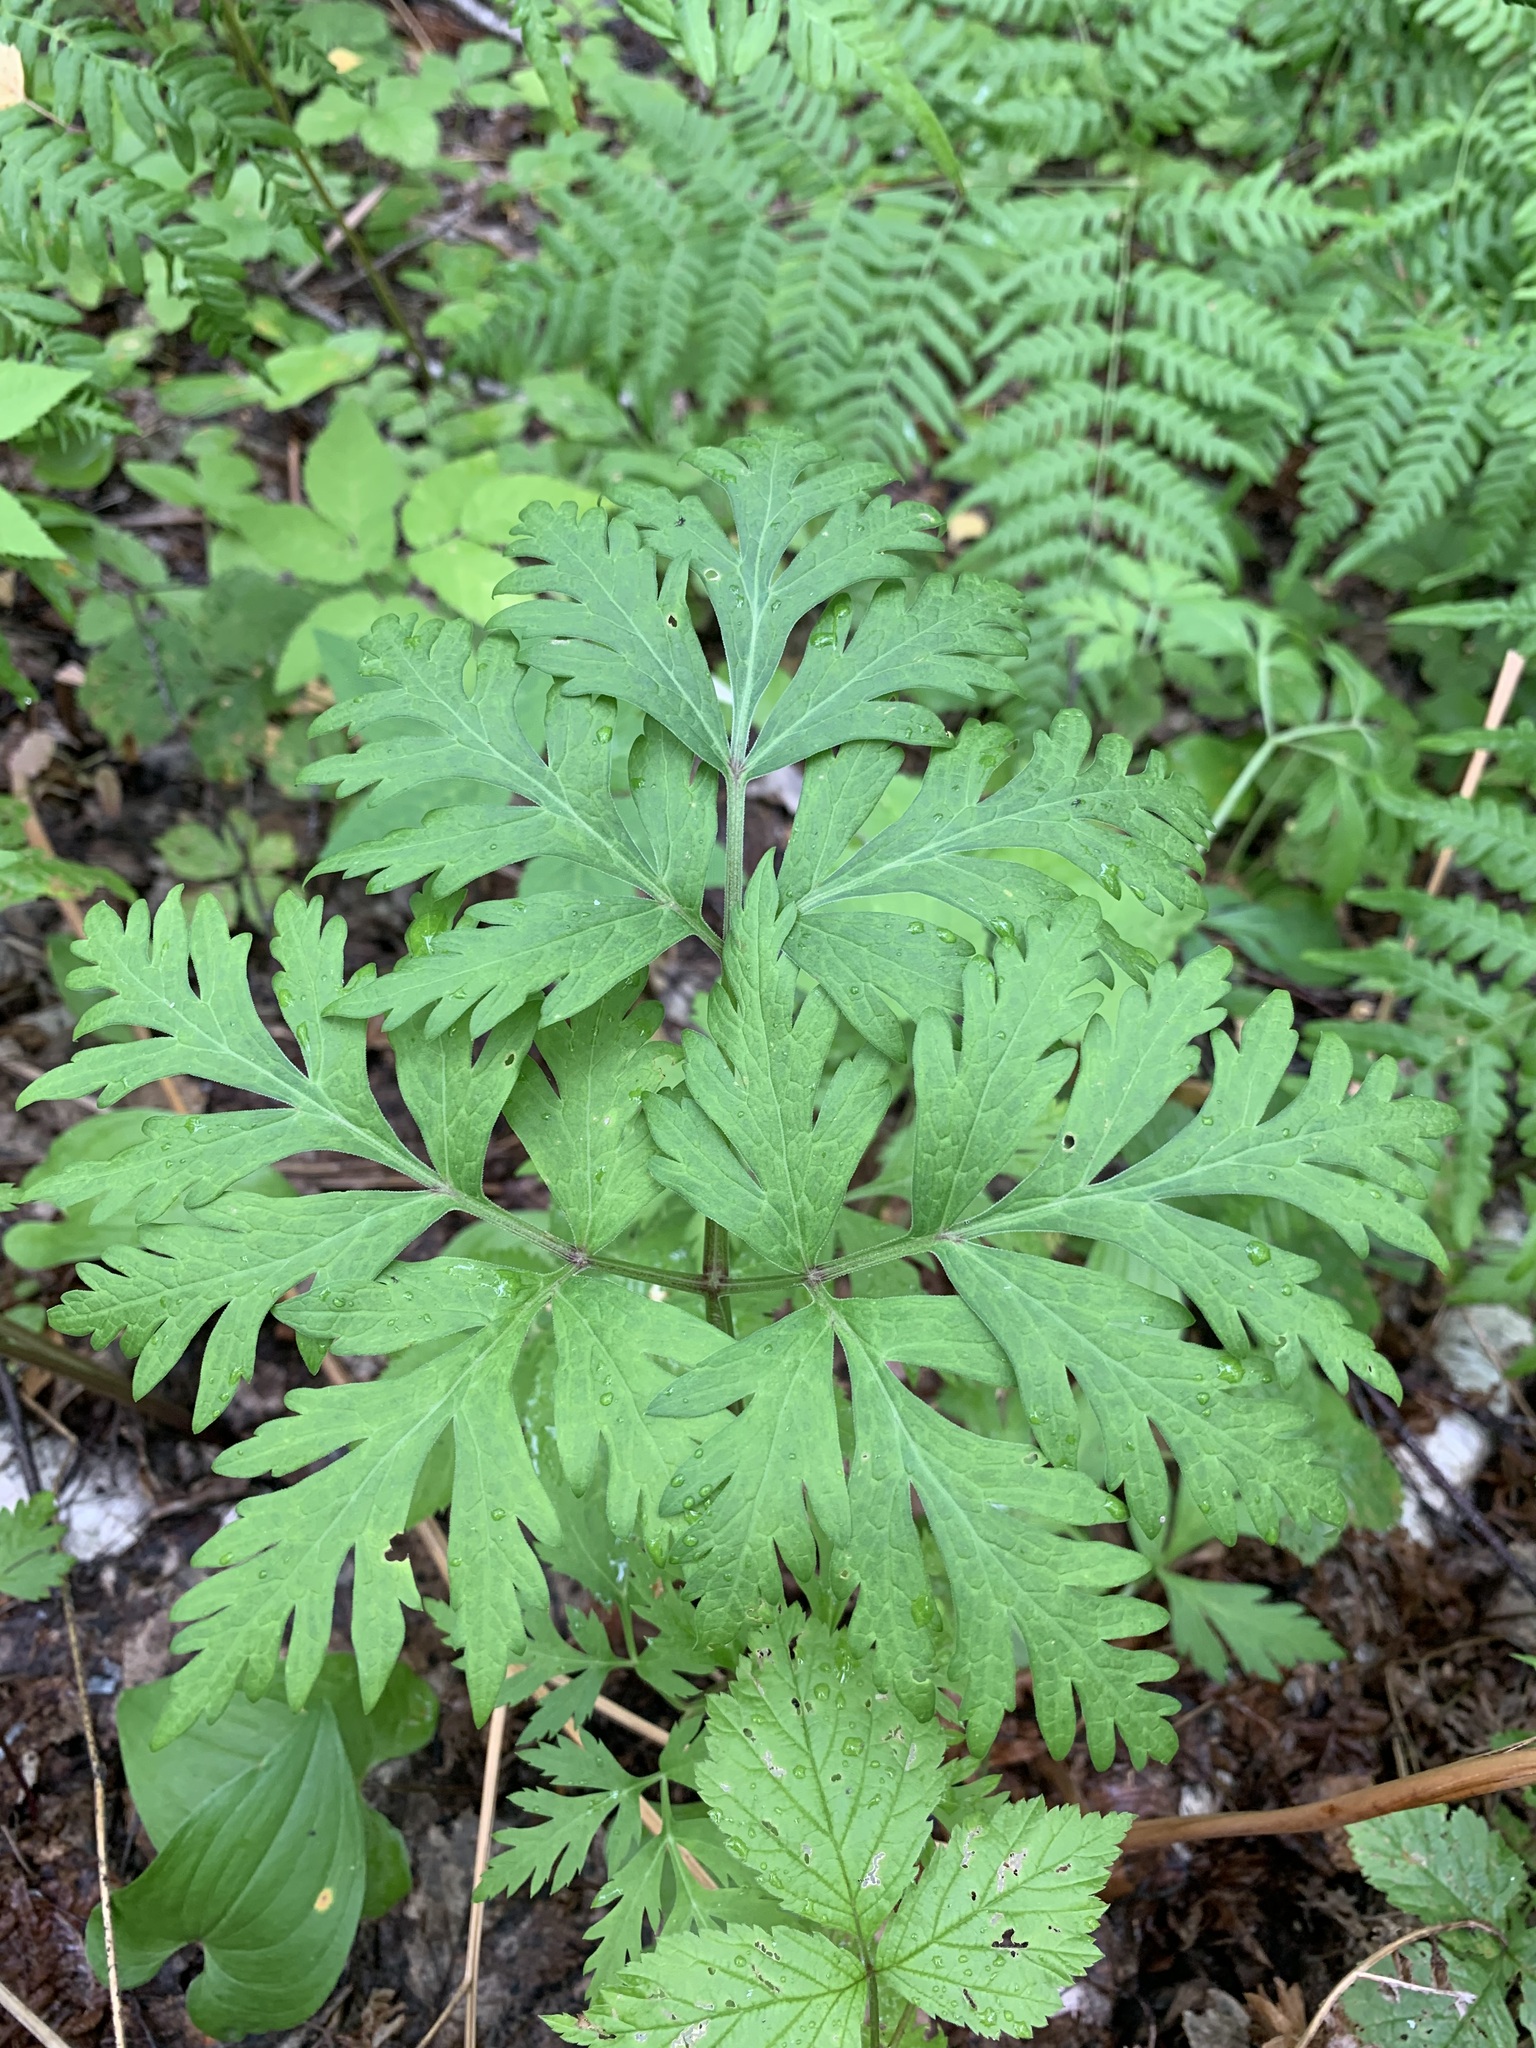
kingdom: Plantae
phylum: Tracheophyta
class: Magnoliopsida
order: Apiales
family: Apiaceae
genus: Pleurospermum
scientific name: Pleurospermum uralense
